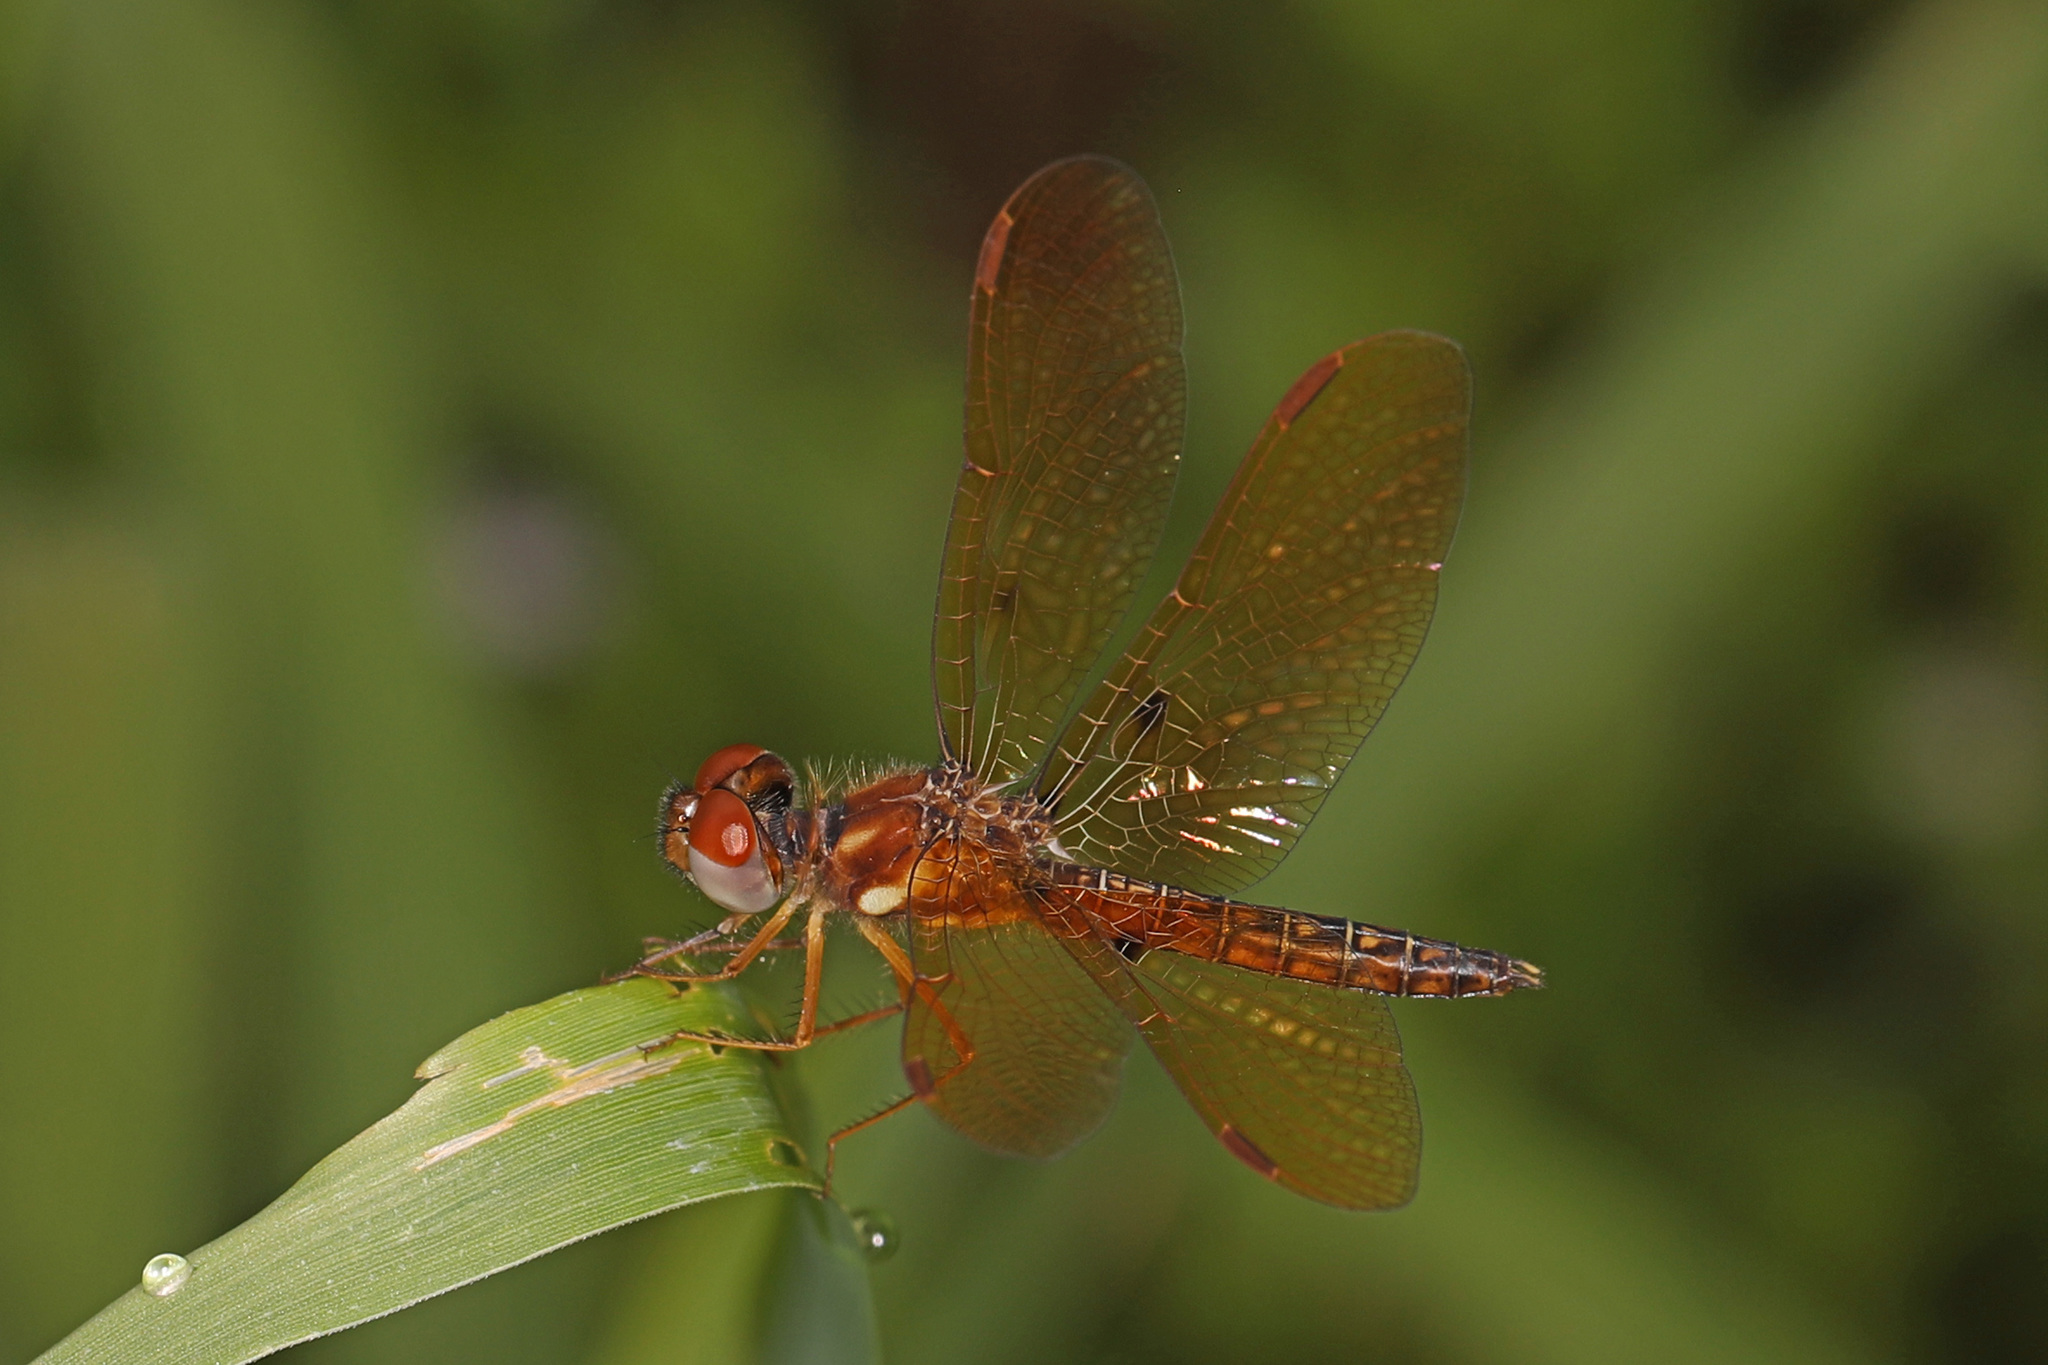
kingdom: Animalia
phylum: Arthropoda
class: Insecta
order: Odonata
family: Libellulidae
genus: Perithemis
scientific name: Perithemis tenera
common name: Eastern amberwing
